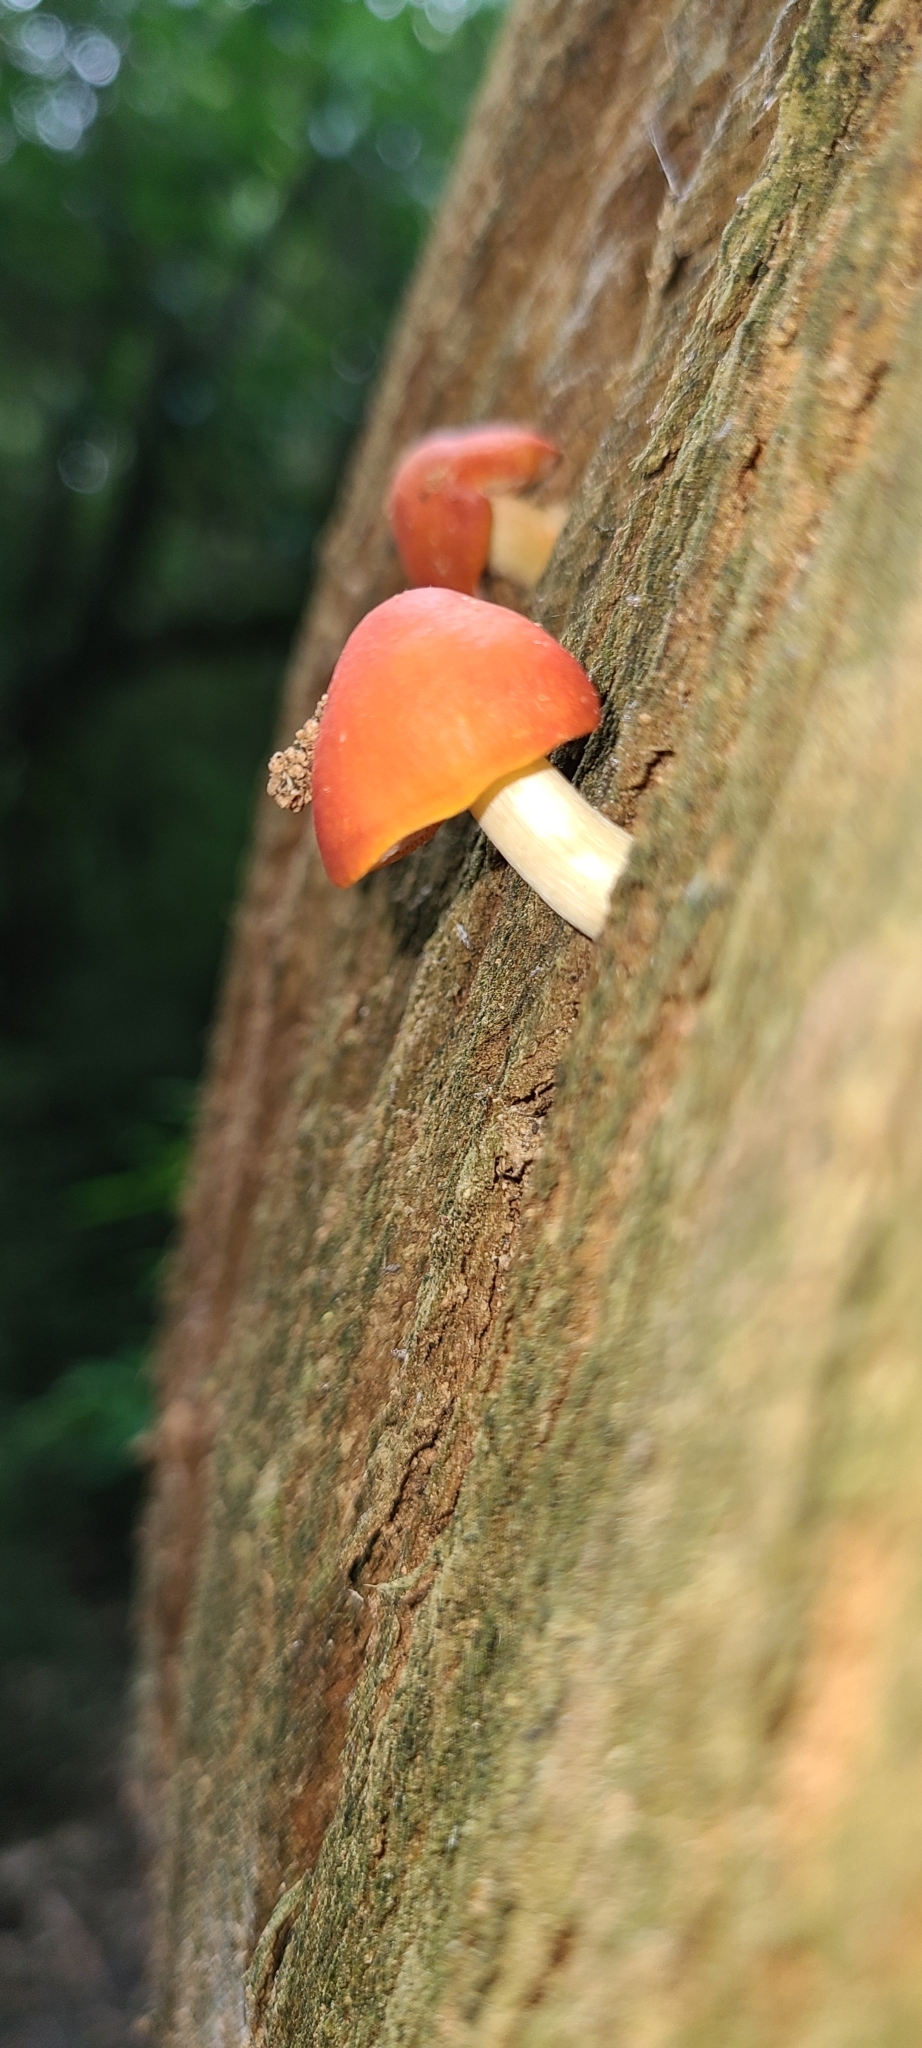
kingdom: Fungi
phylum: Basidiomycota
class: Agaricomycetes
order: Agaricales
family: Pluteaceae
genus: Pluteus
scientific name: Pluteus aurantiorugosus
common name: Flame shield
